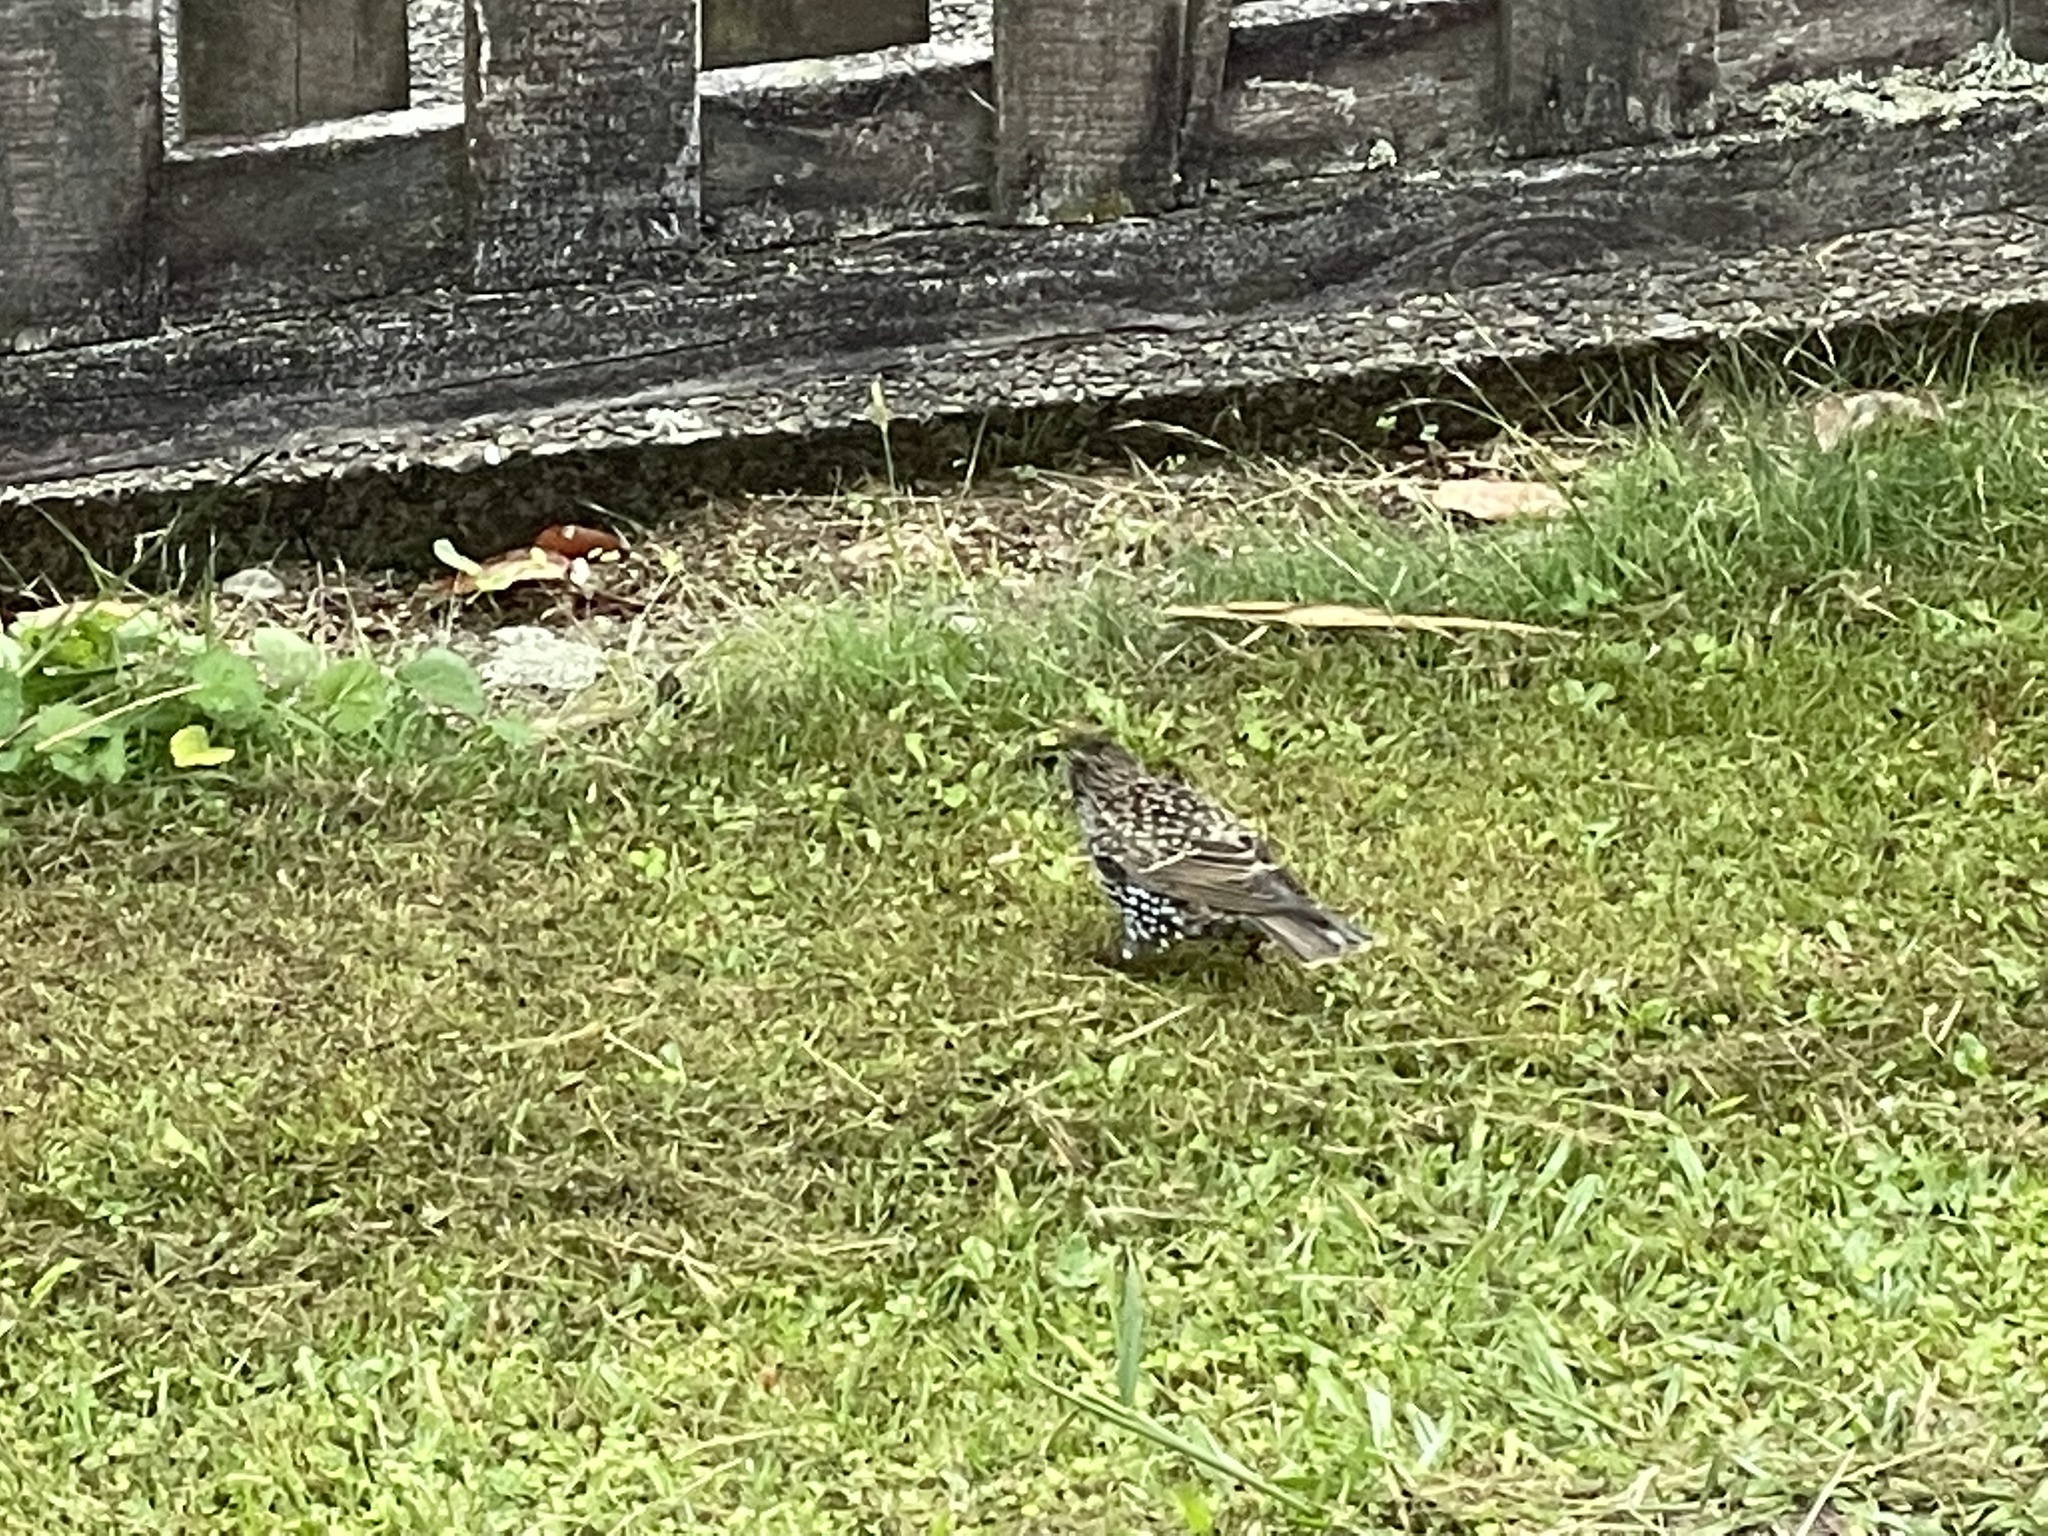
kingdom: Animalia
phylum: Chordata
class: Aves
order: Passeriformes
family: Sturnidae
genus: Sturnus
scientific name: Sturnus vulgaris
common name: Common starling
